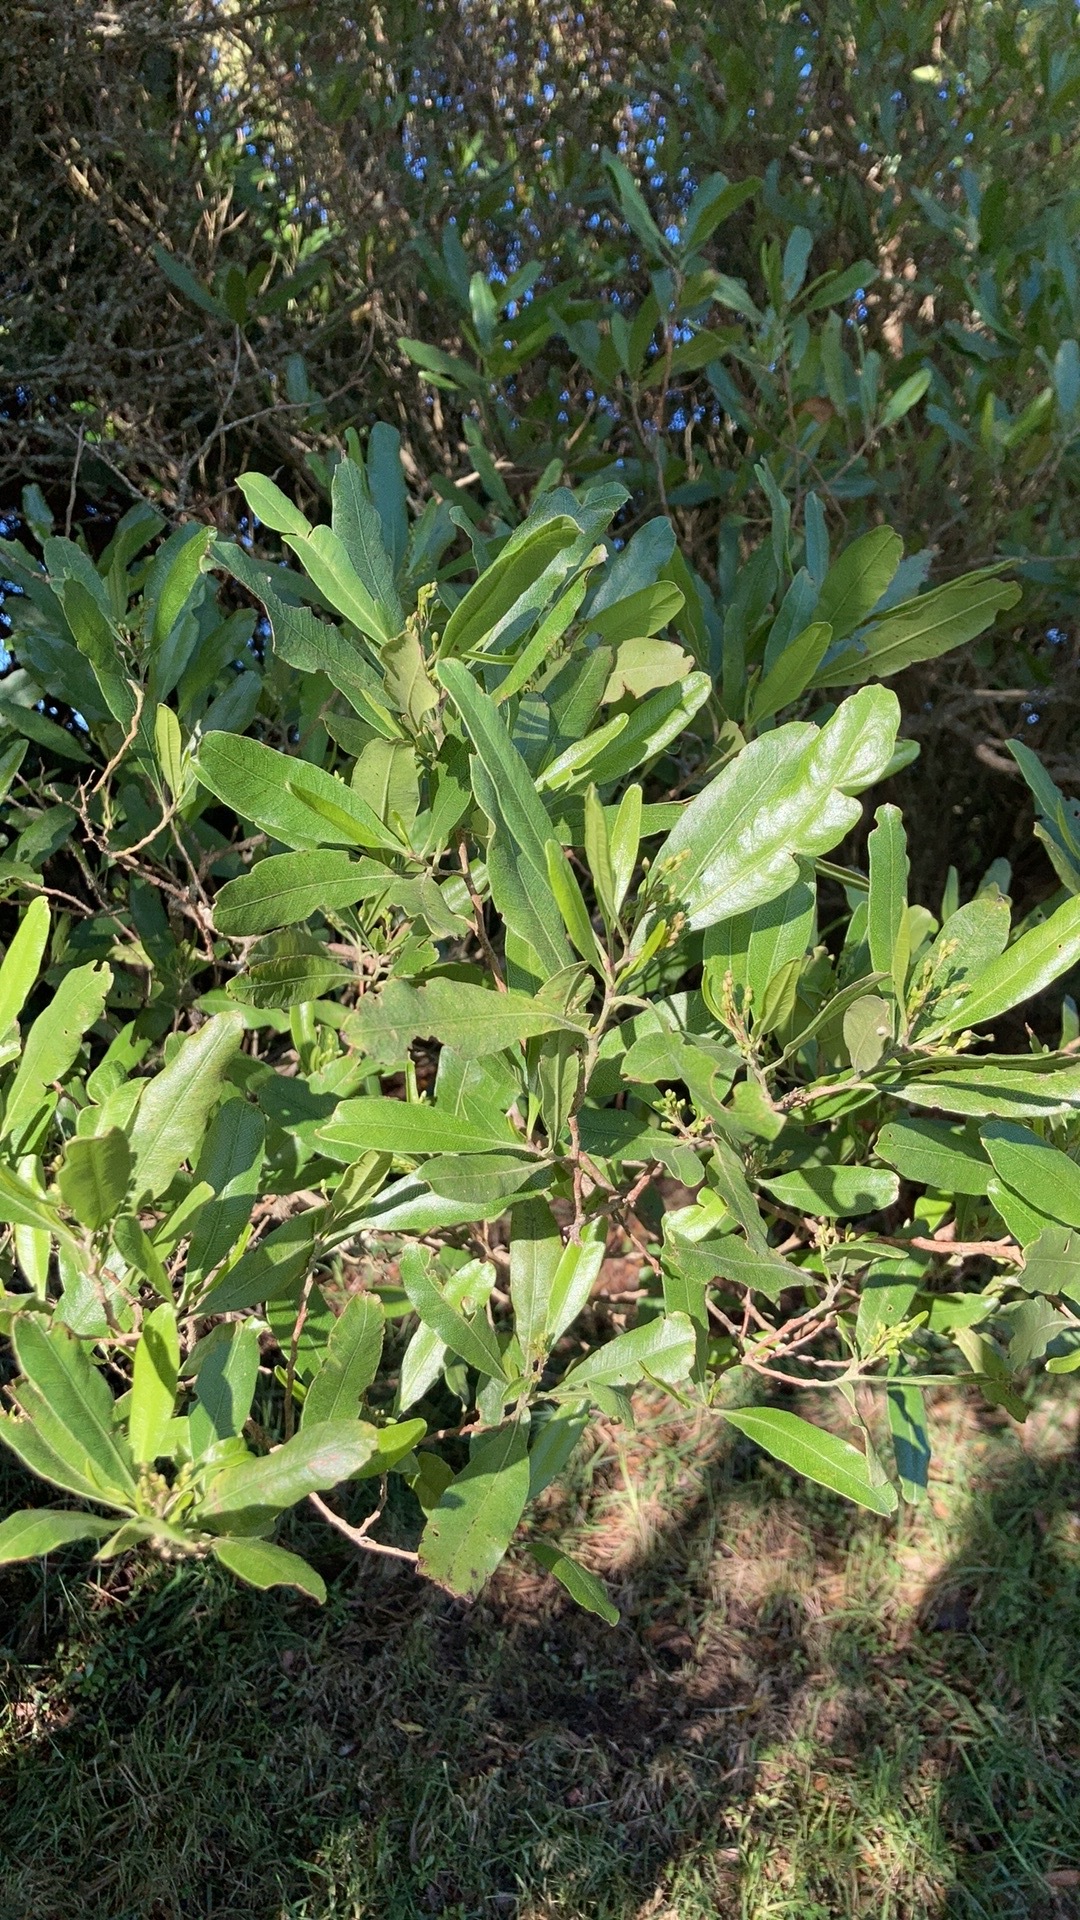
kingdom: Plantae
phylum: Tracheophyta
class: Magnoliopsida
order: Sapindales
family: Sapindaceae
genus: Dodonaea
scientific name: Dodonaea viscosa
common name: Hopbush
